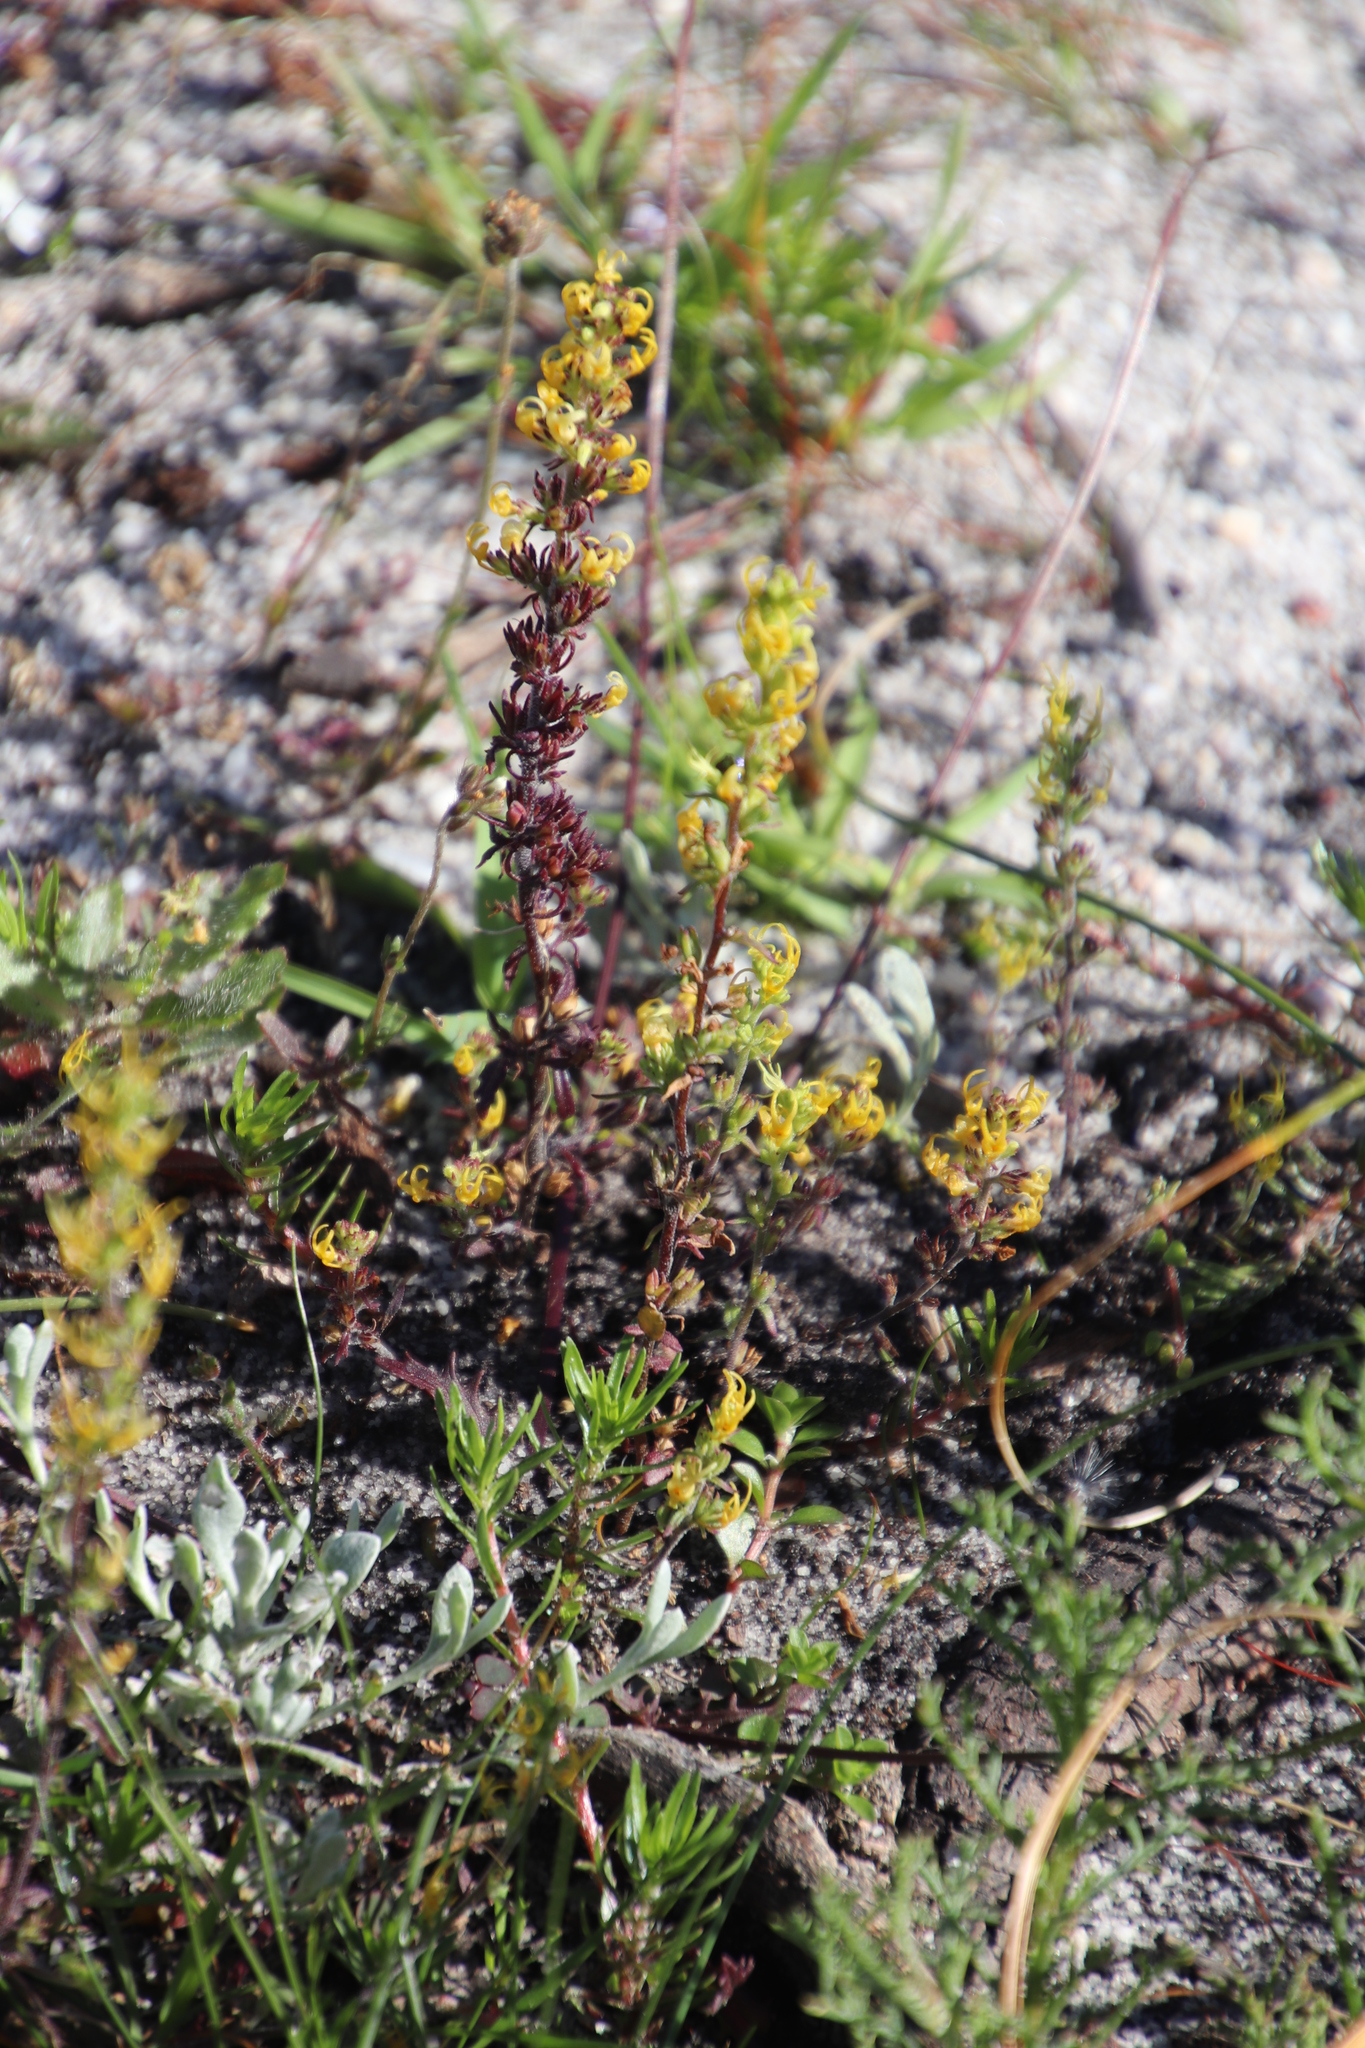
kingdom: Plantae
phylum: Tracheophyta
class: Magnoliopsida
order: Lamiales
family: Scrophulariaceae
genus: Manulea
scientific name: Manulea cheiranthus
